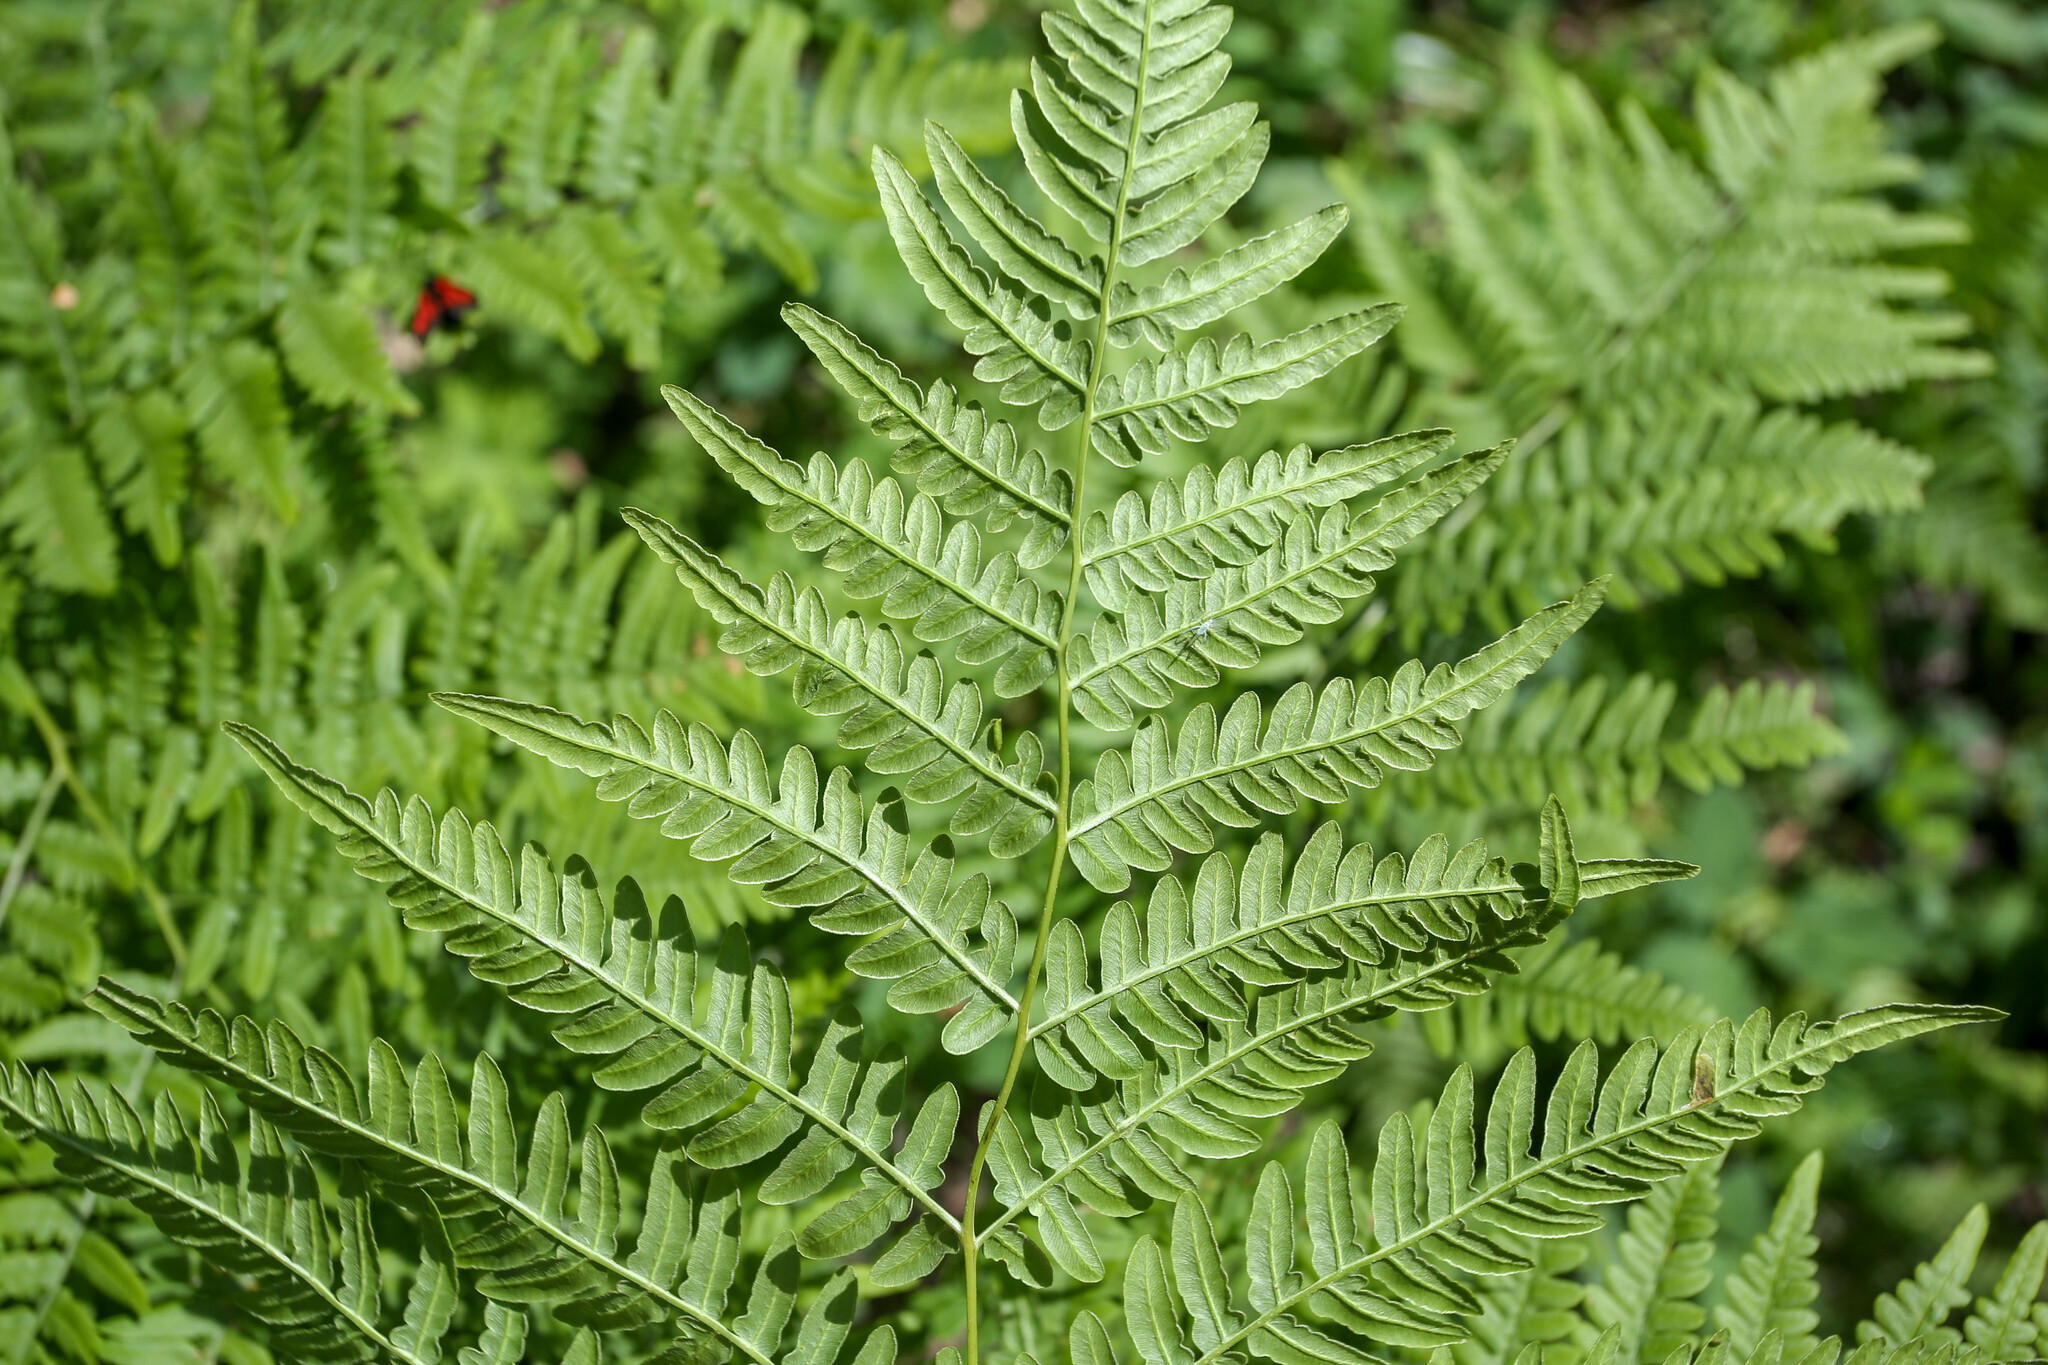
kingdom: Plantae
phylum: Tracheophyta
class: Polypodiopsida
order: Polypodiales
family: Dennstaedtiaceae
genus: Pteridium
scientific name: Pteridium aquilinum
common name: Bracken
